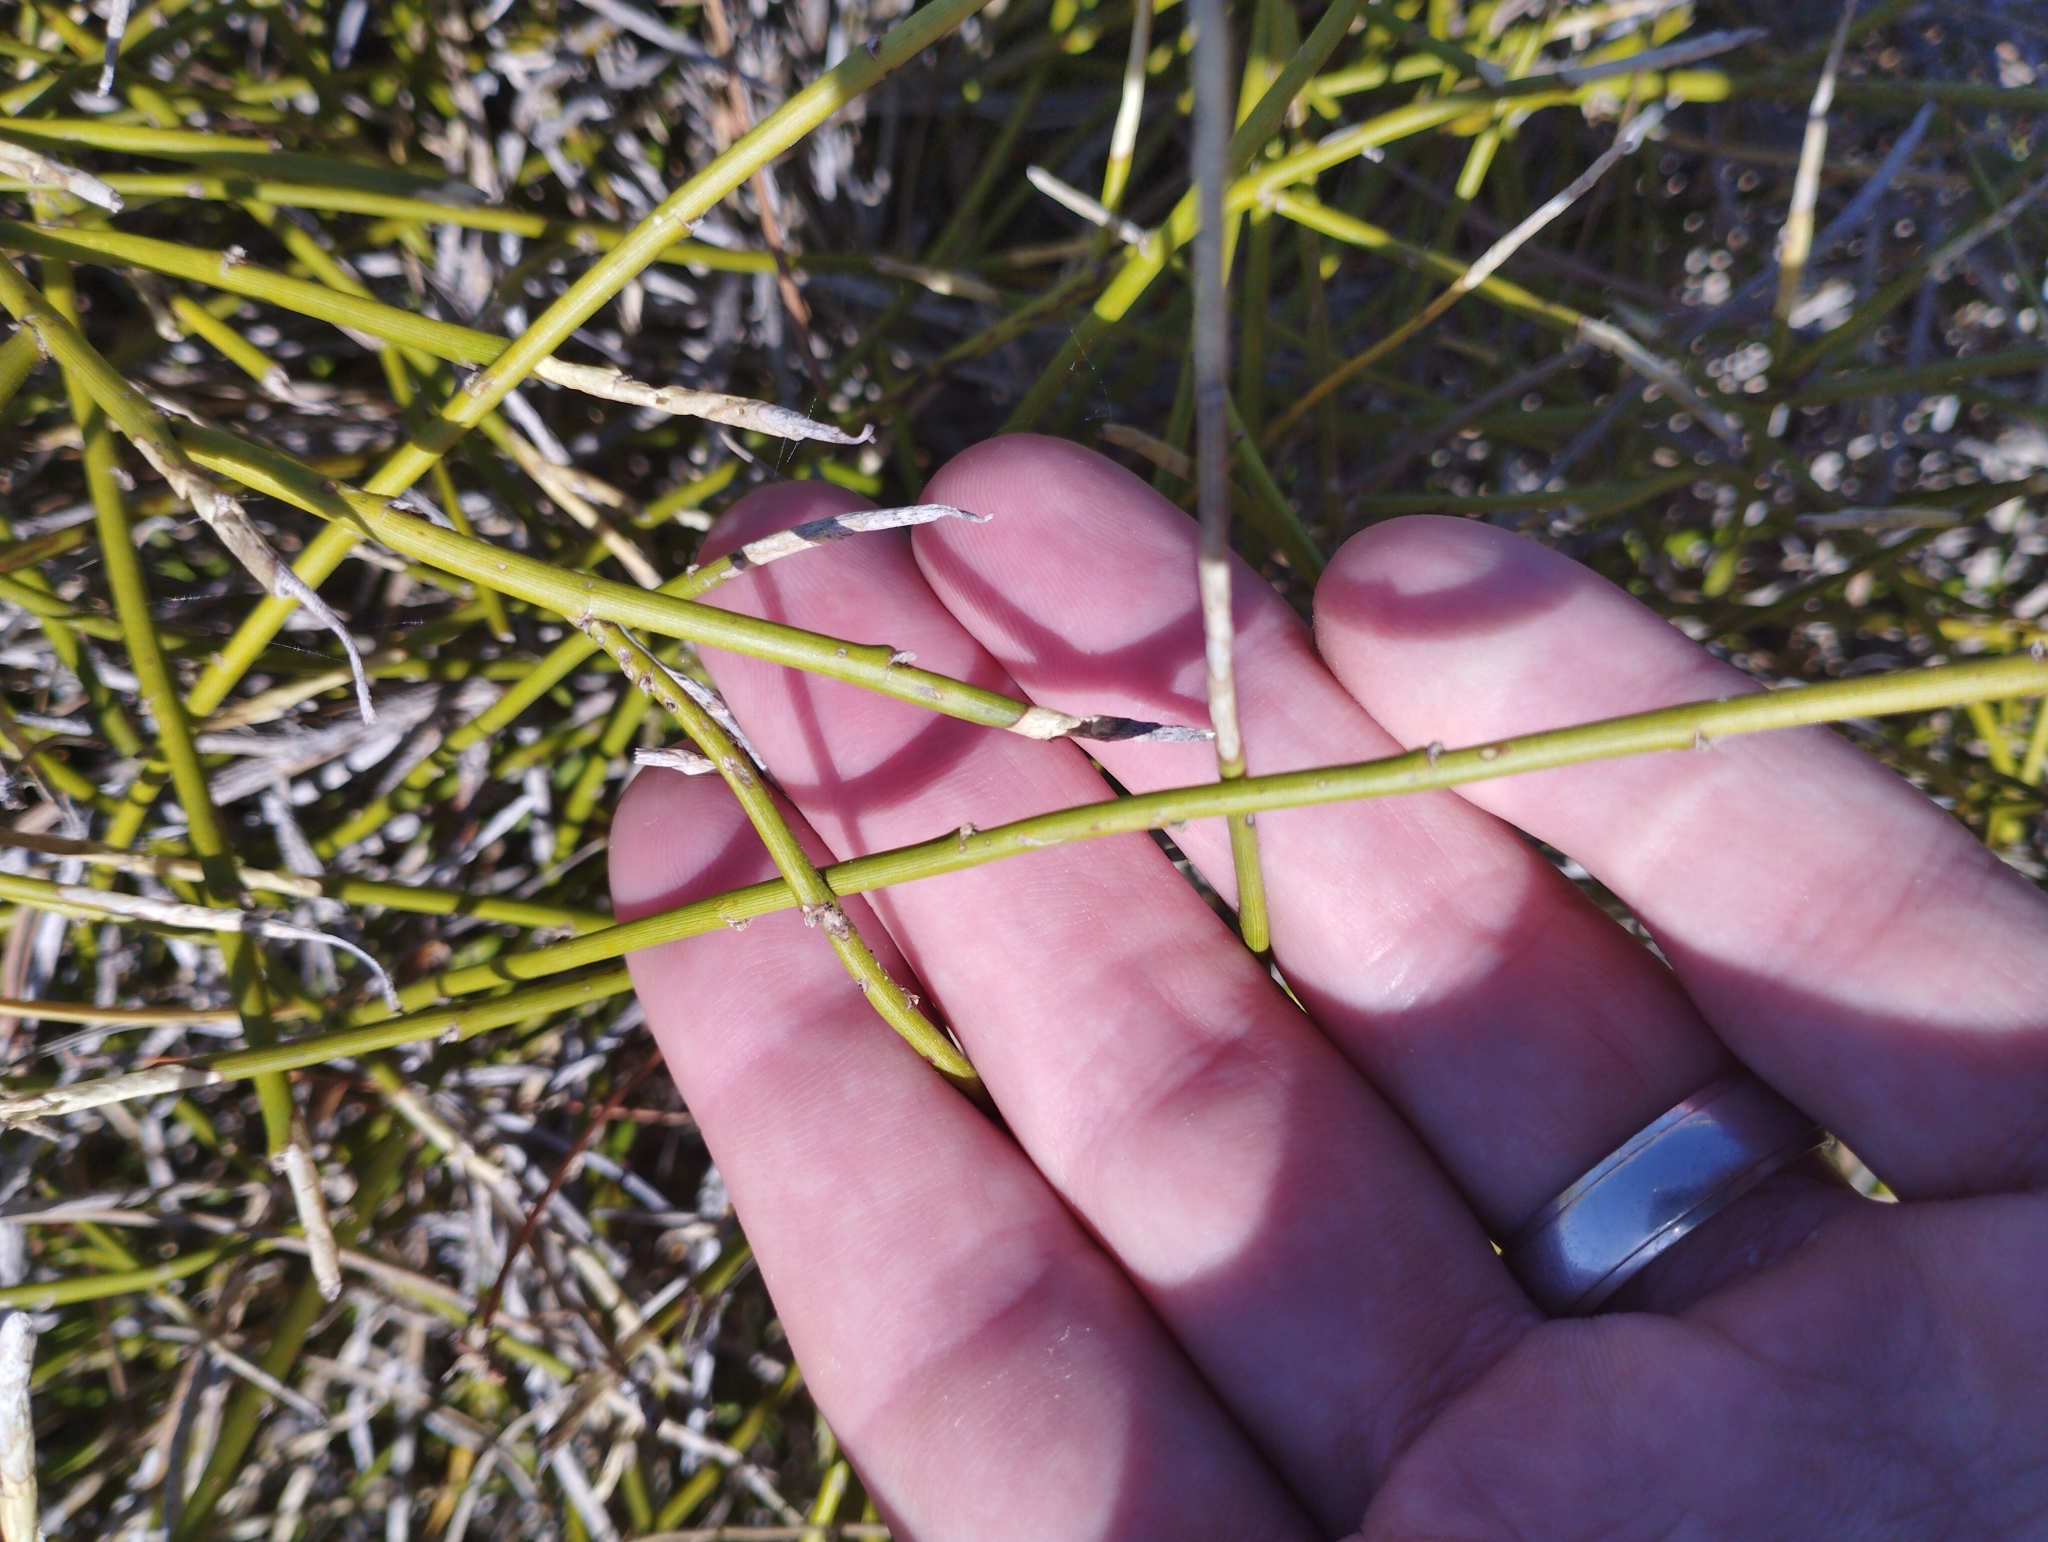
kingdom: Plantae
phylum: Tracheophyta
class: Magnoliopsida
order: Fabales
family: Fabaceae
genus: Carmichaelia
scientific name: Carmichaelia appressa
